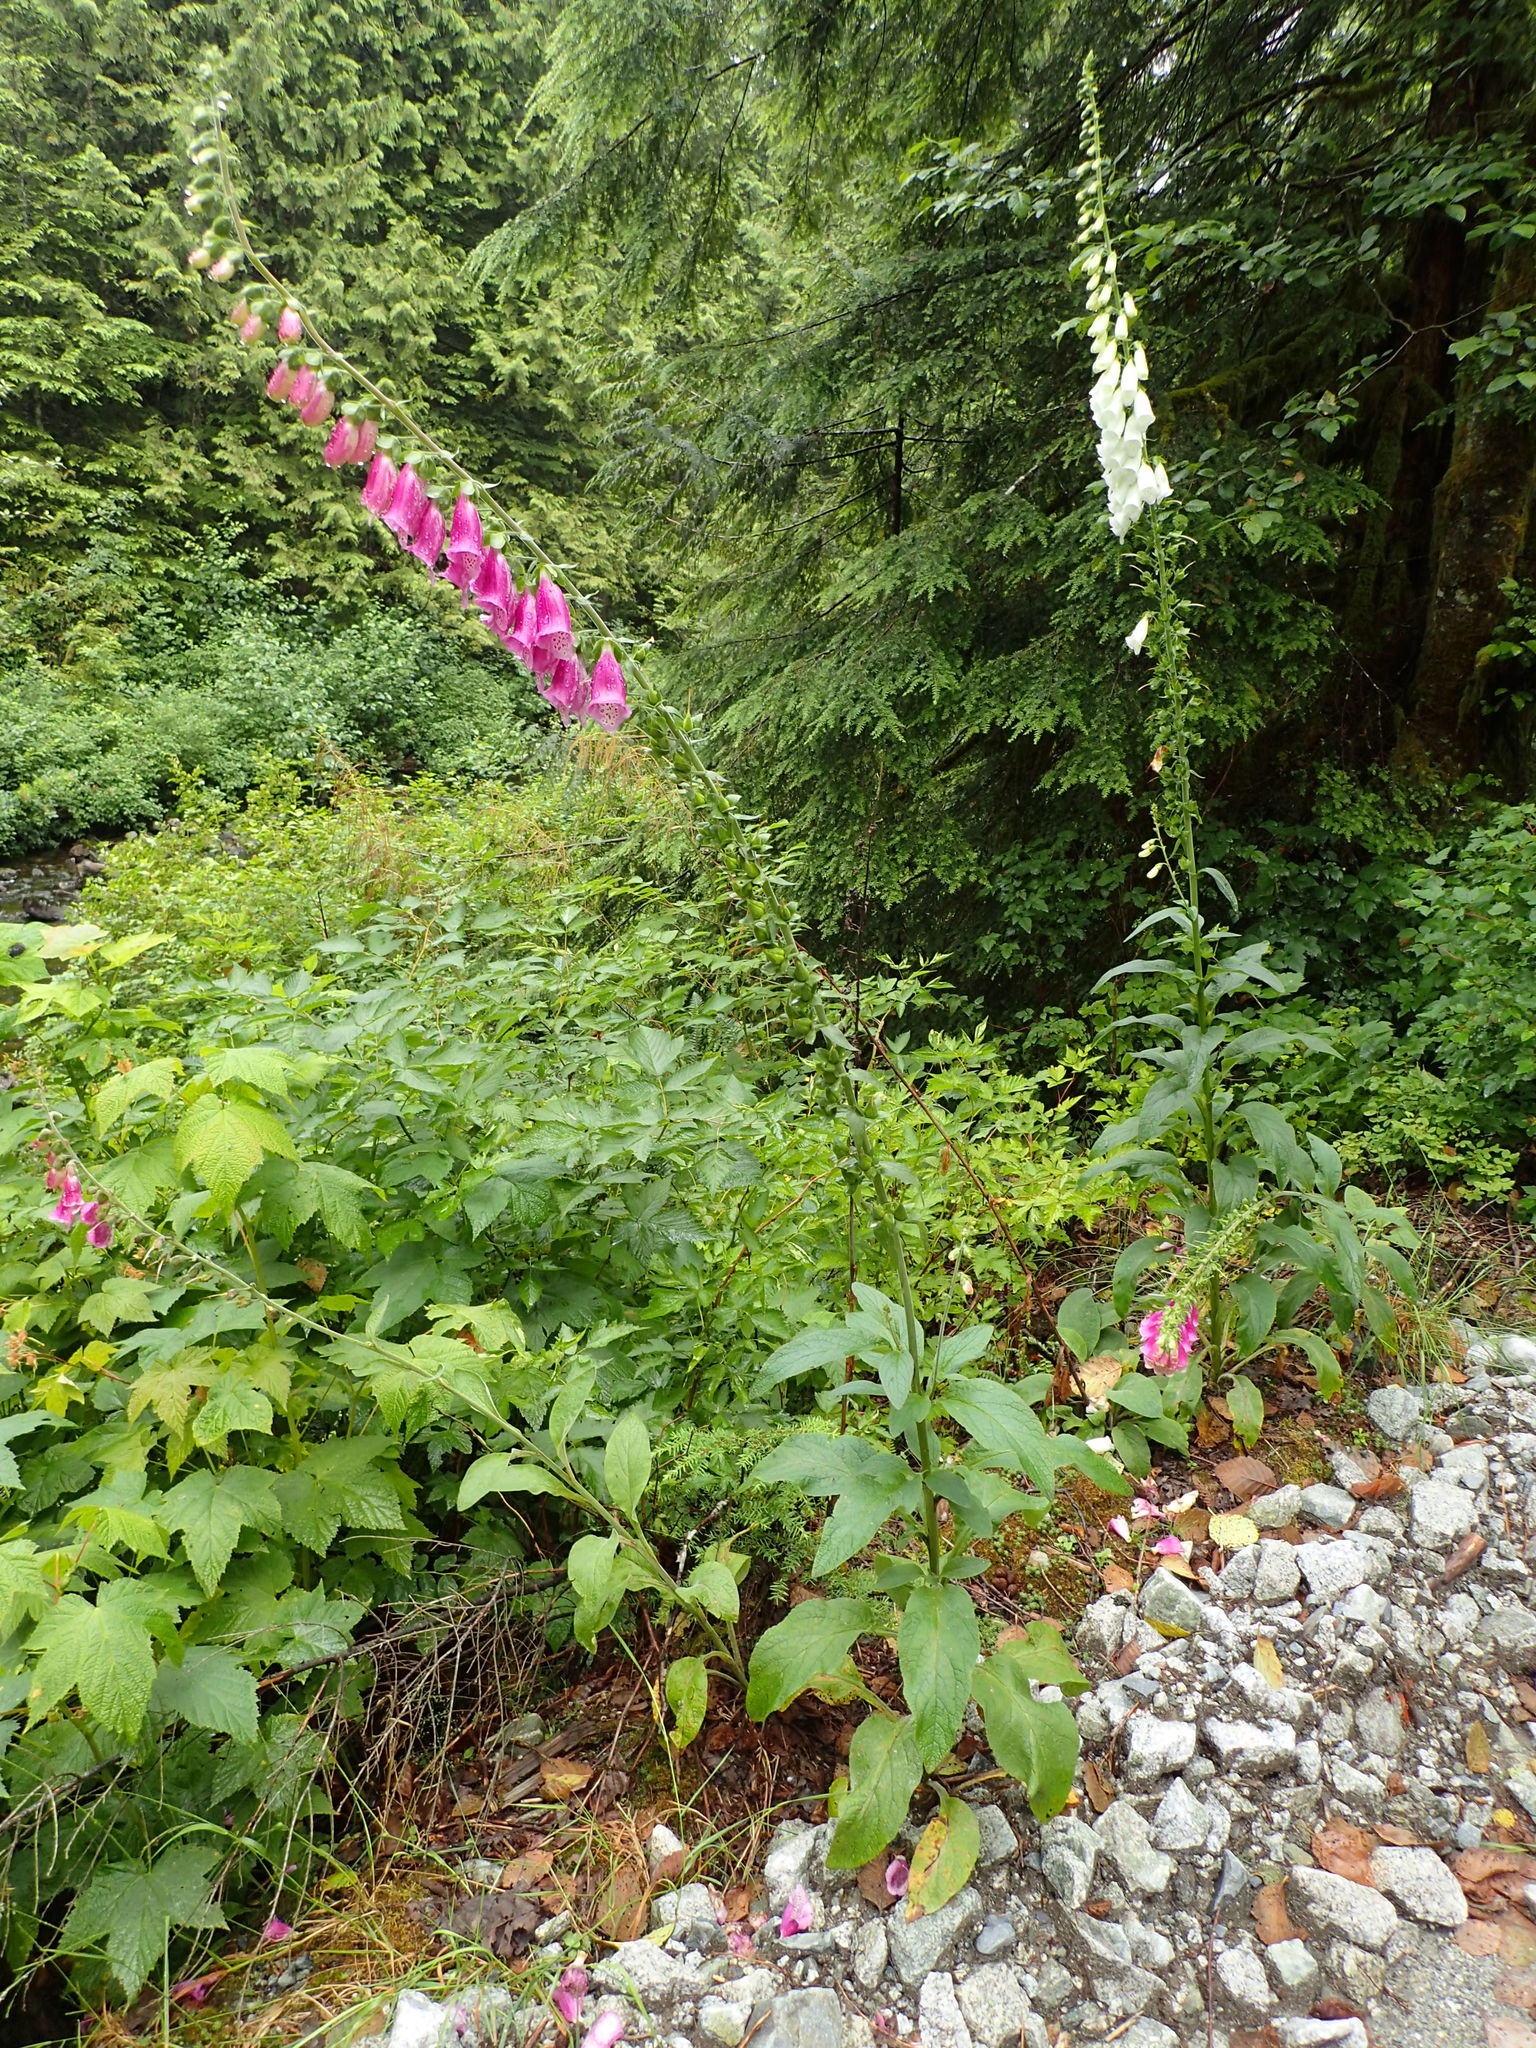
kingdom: Plantae
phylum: Tracheophyta
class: Magnoliopsida
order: Lamiales
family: Plantaginaceae
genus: Digitalis
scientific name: Digitalis purpurea
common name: Foxglove
